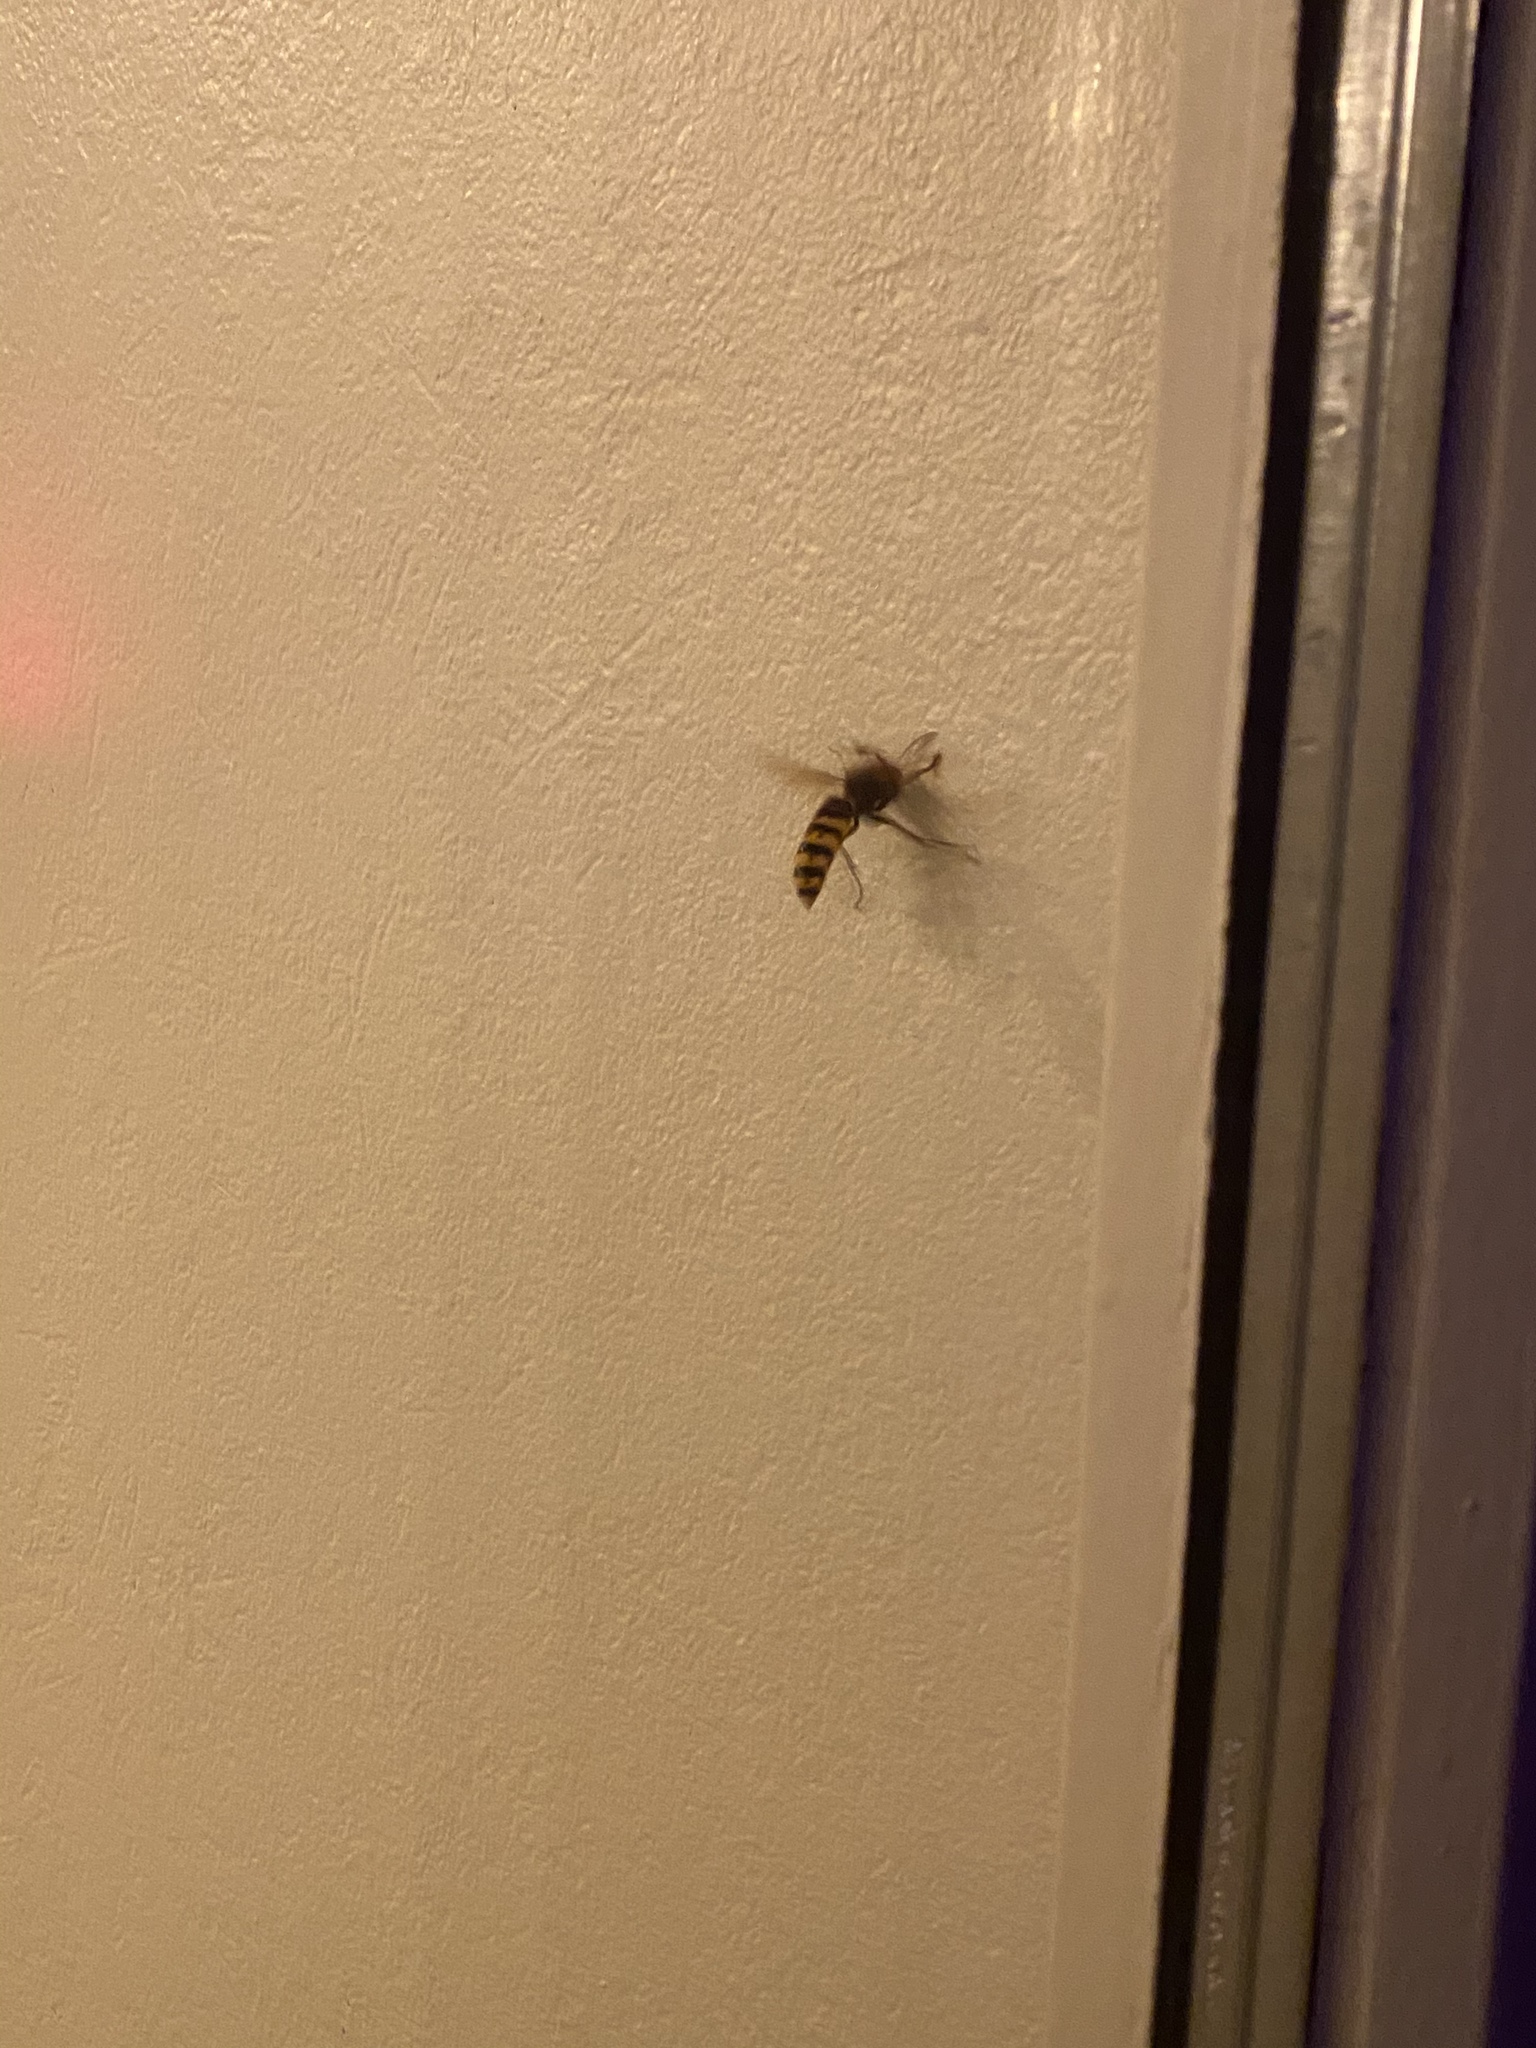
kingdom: Animalia
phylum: Arthropoda
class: Insecta
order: Hymenoptera
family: Vespidae
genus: Vespa
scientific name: Vespa crabro
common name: Hornet
